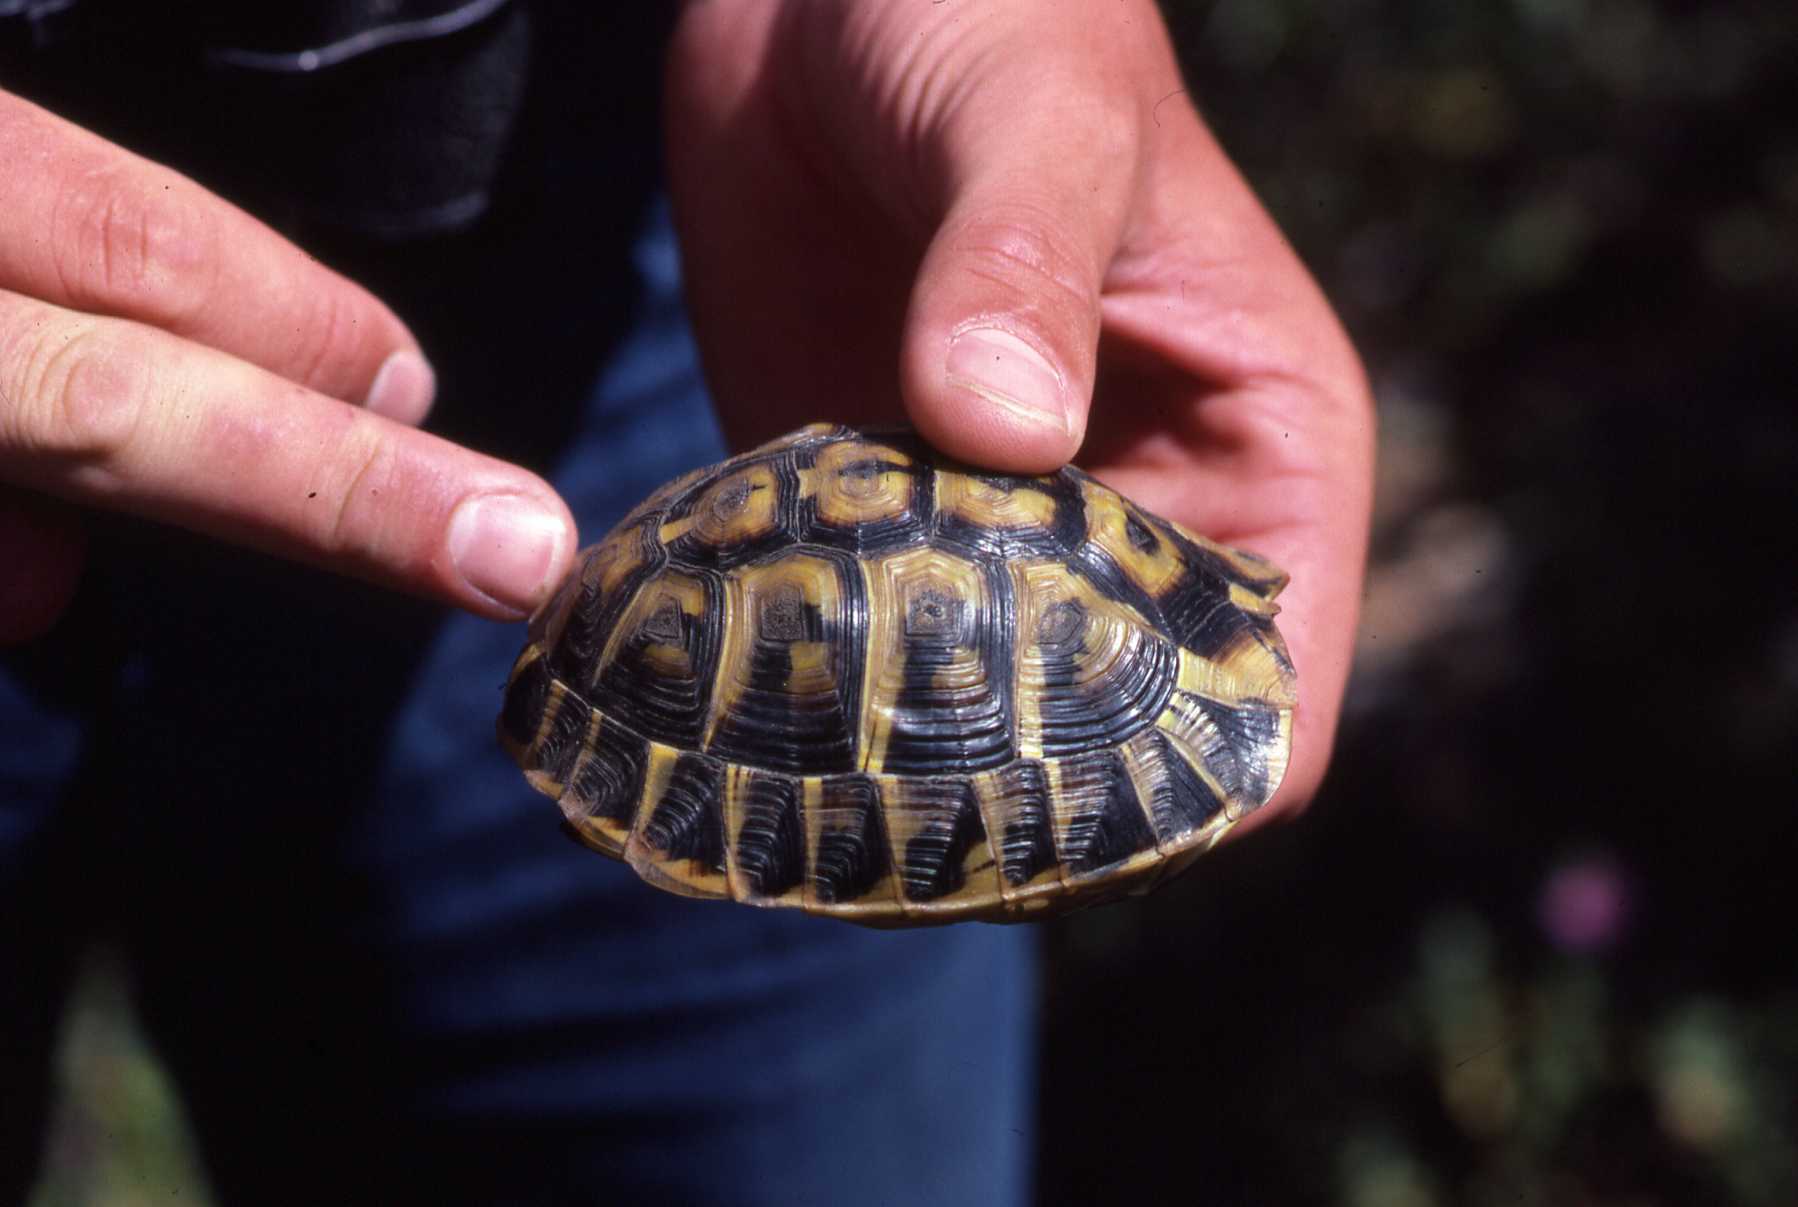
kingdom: Animalia
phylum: Chordata
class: Testudines
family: Testudinidae
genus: Testudo
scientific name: Testudo hermanni
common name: Hermann's tortoise
